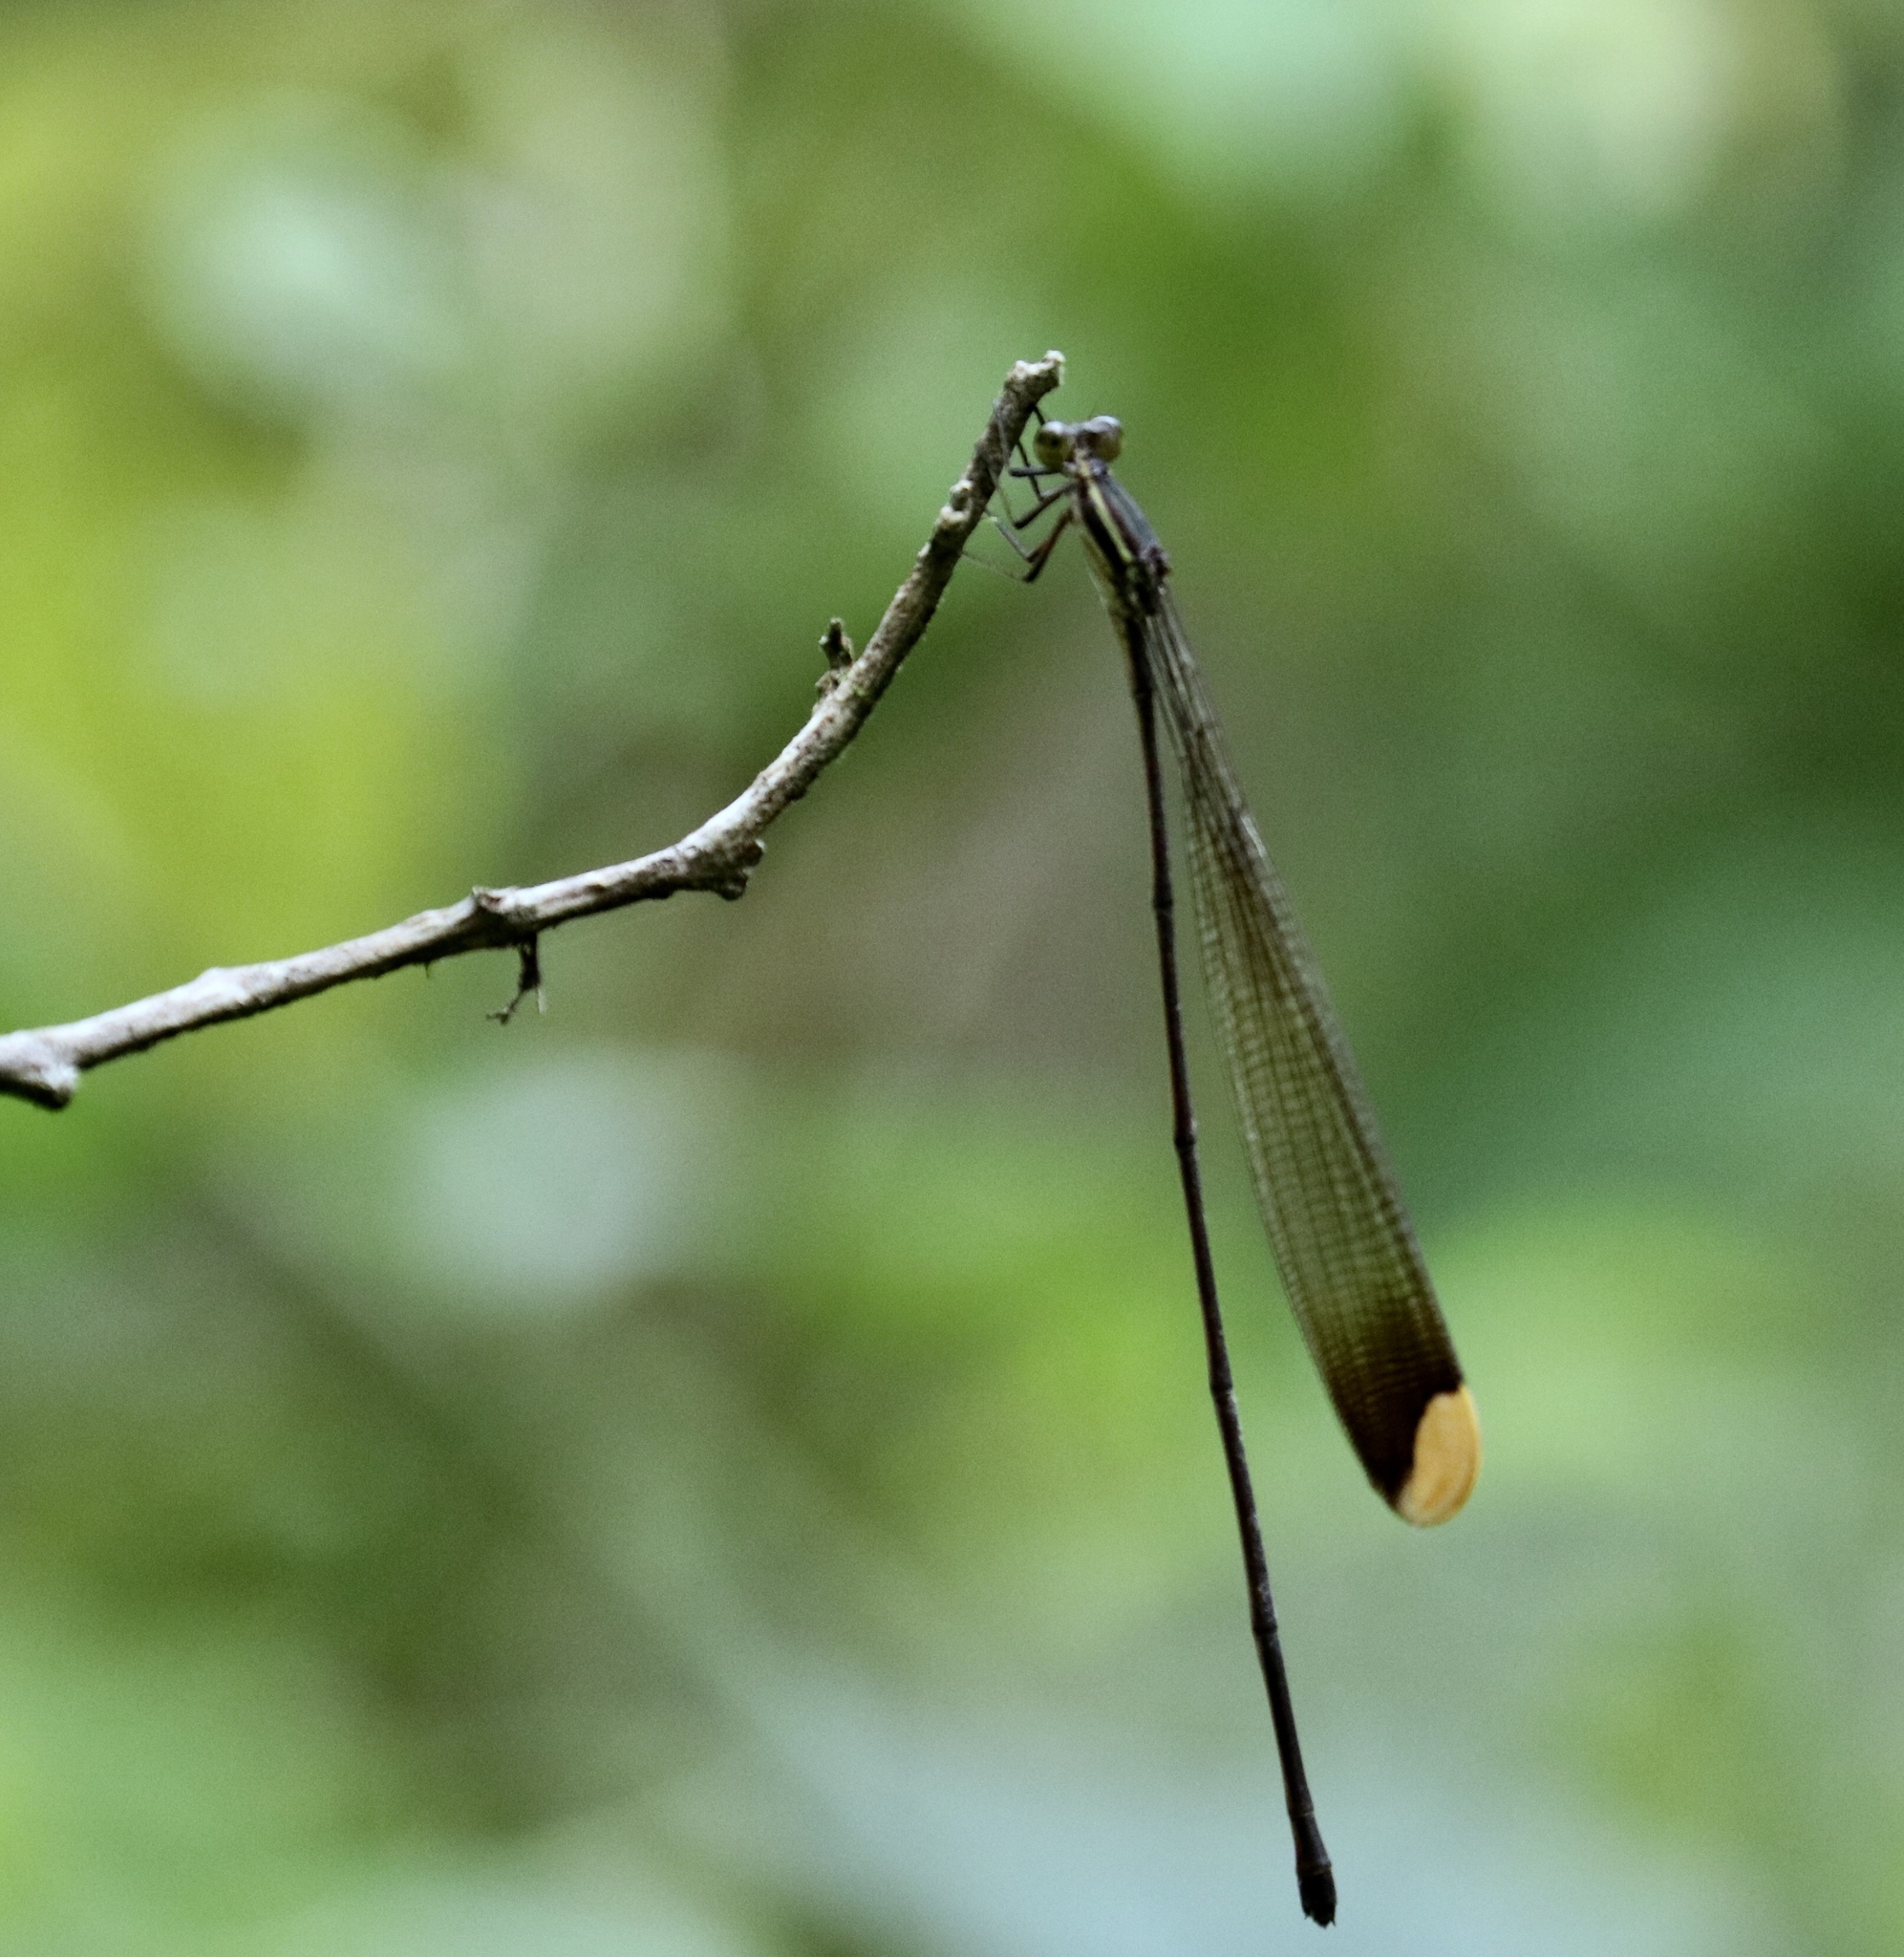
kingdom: Animalia
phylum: Arthropoda
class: Insecta
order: Odonata
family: Coenagrionidae
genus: Mecistogaster
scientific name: Mecistogaster ornata
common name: Ornate helicopter
